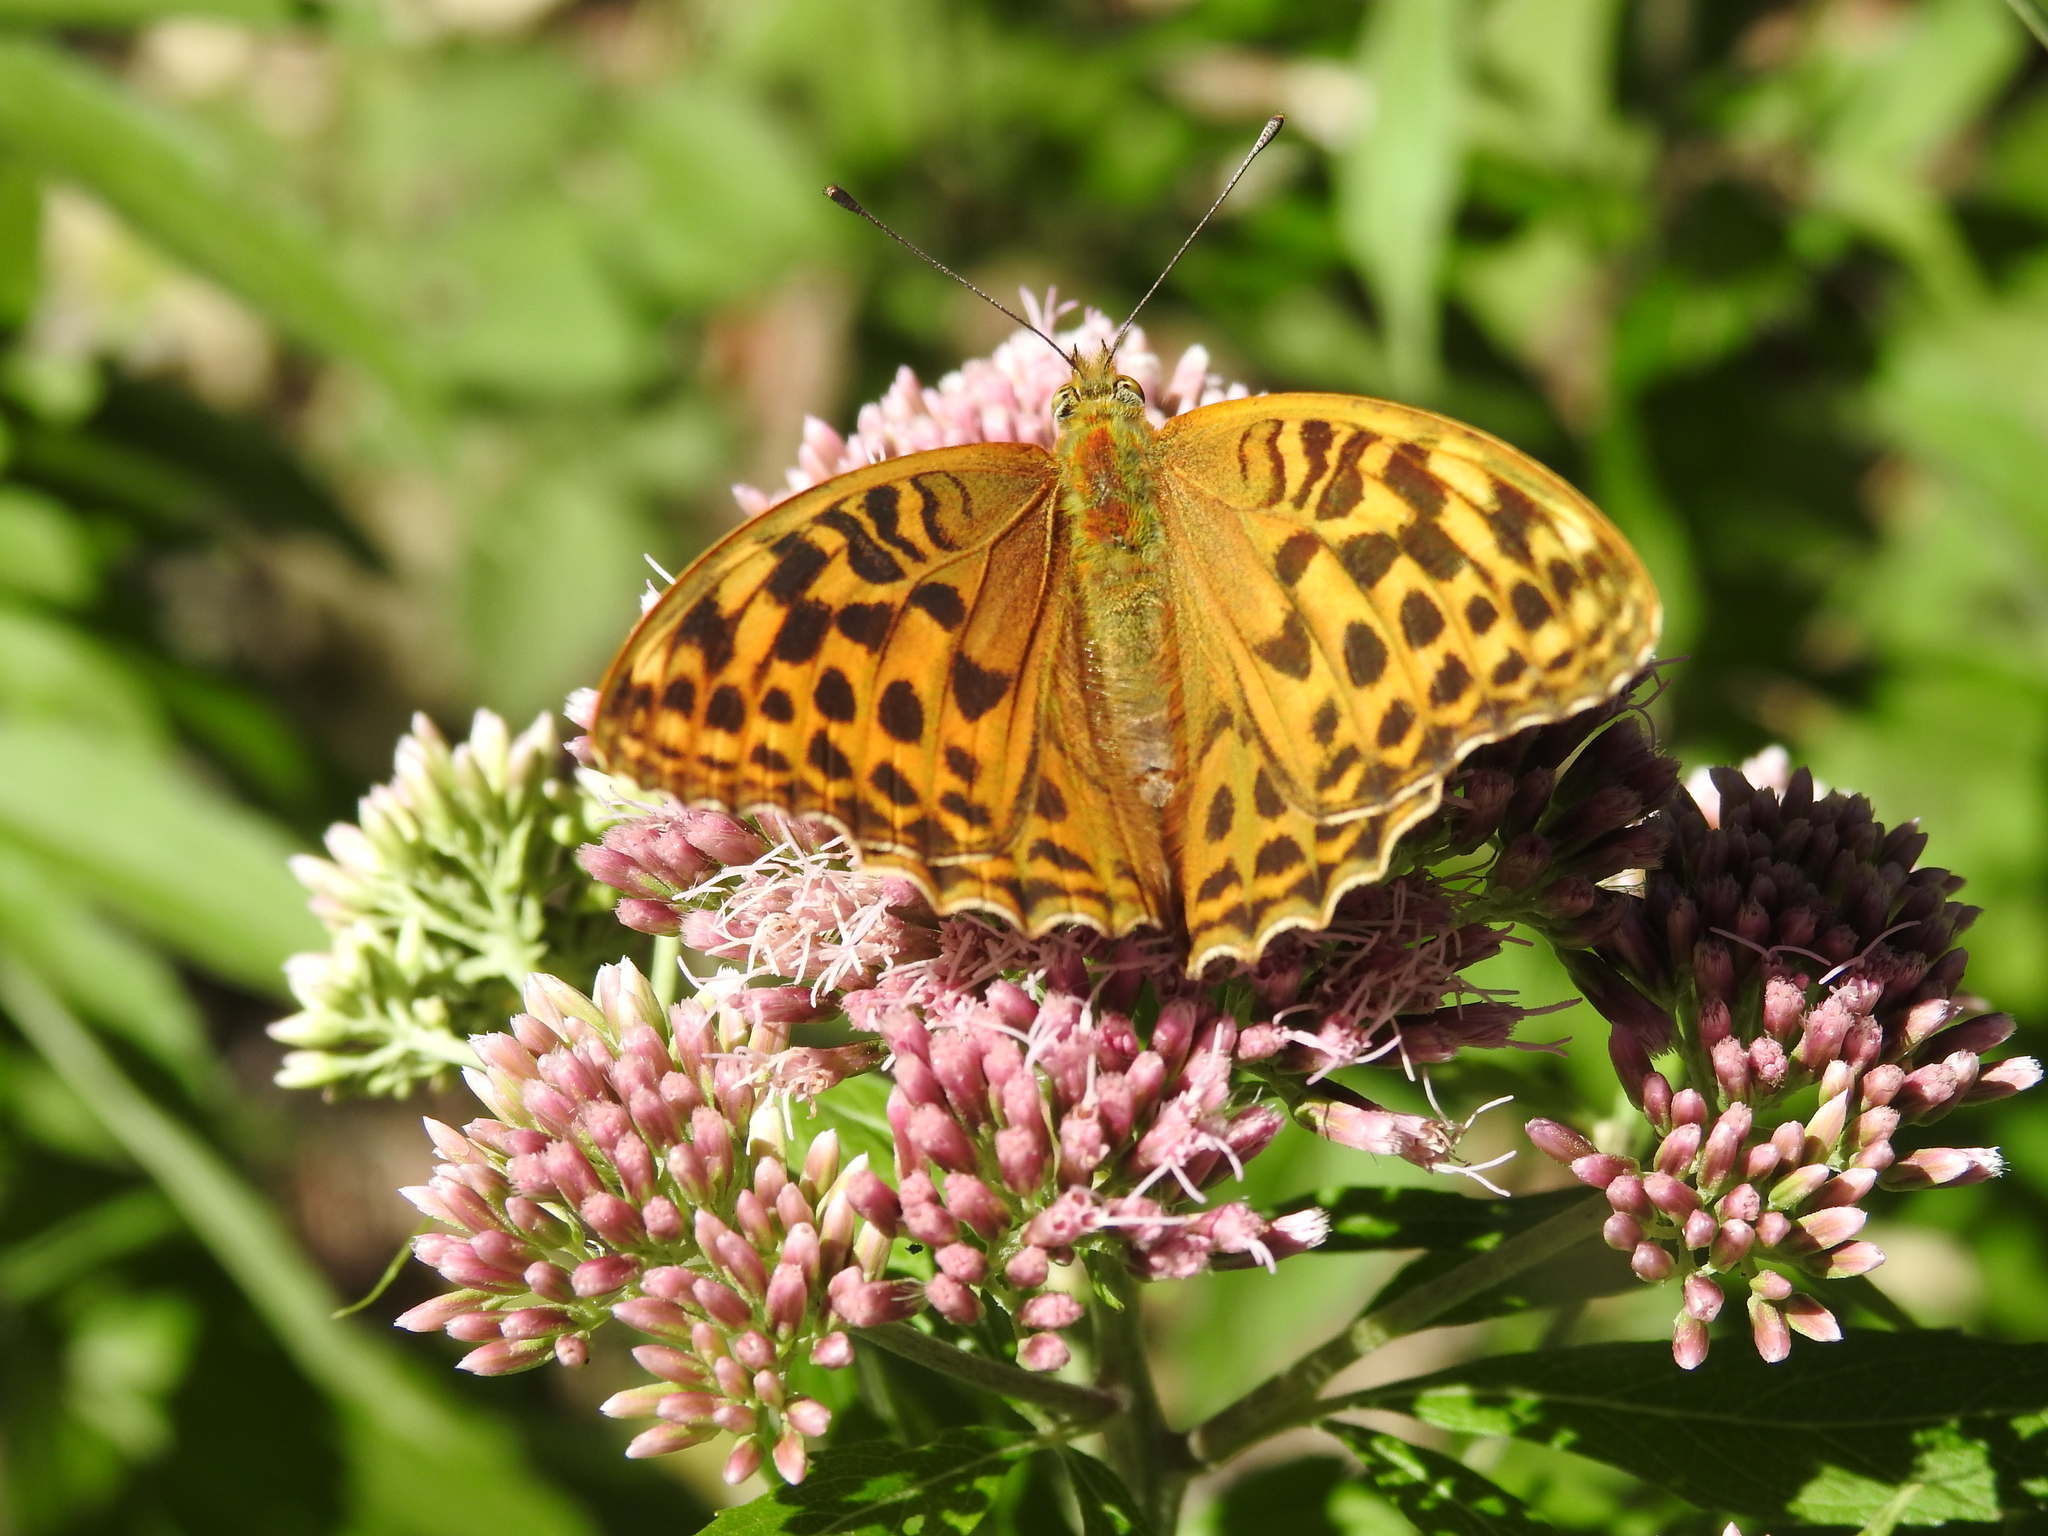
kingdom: Animalia
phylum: Arthropoda
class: Insecta
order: Lepidoptera
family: Nymphalidae
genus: Argynnis
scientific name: Argynnis paphia
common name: Silver-washed fritillary
